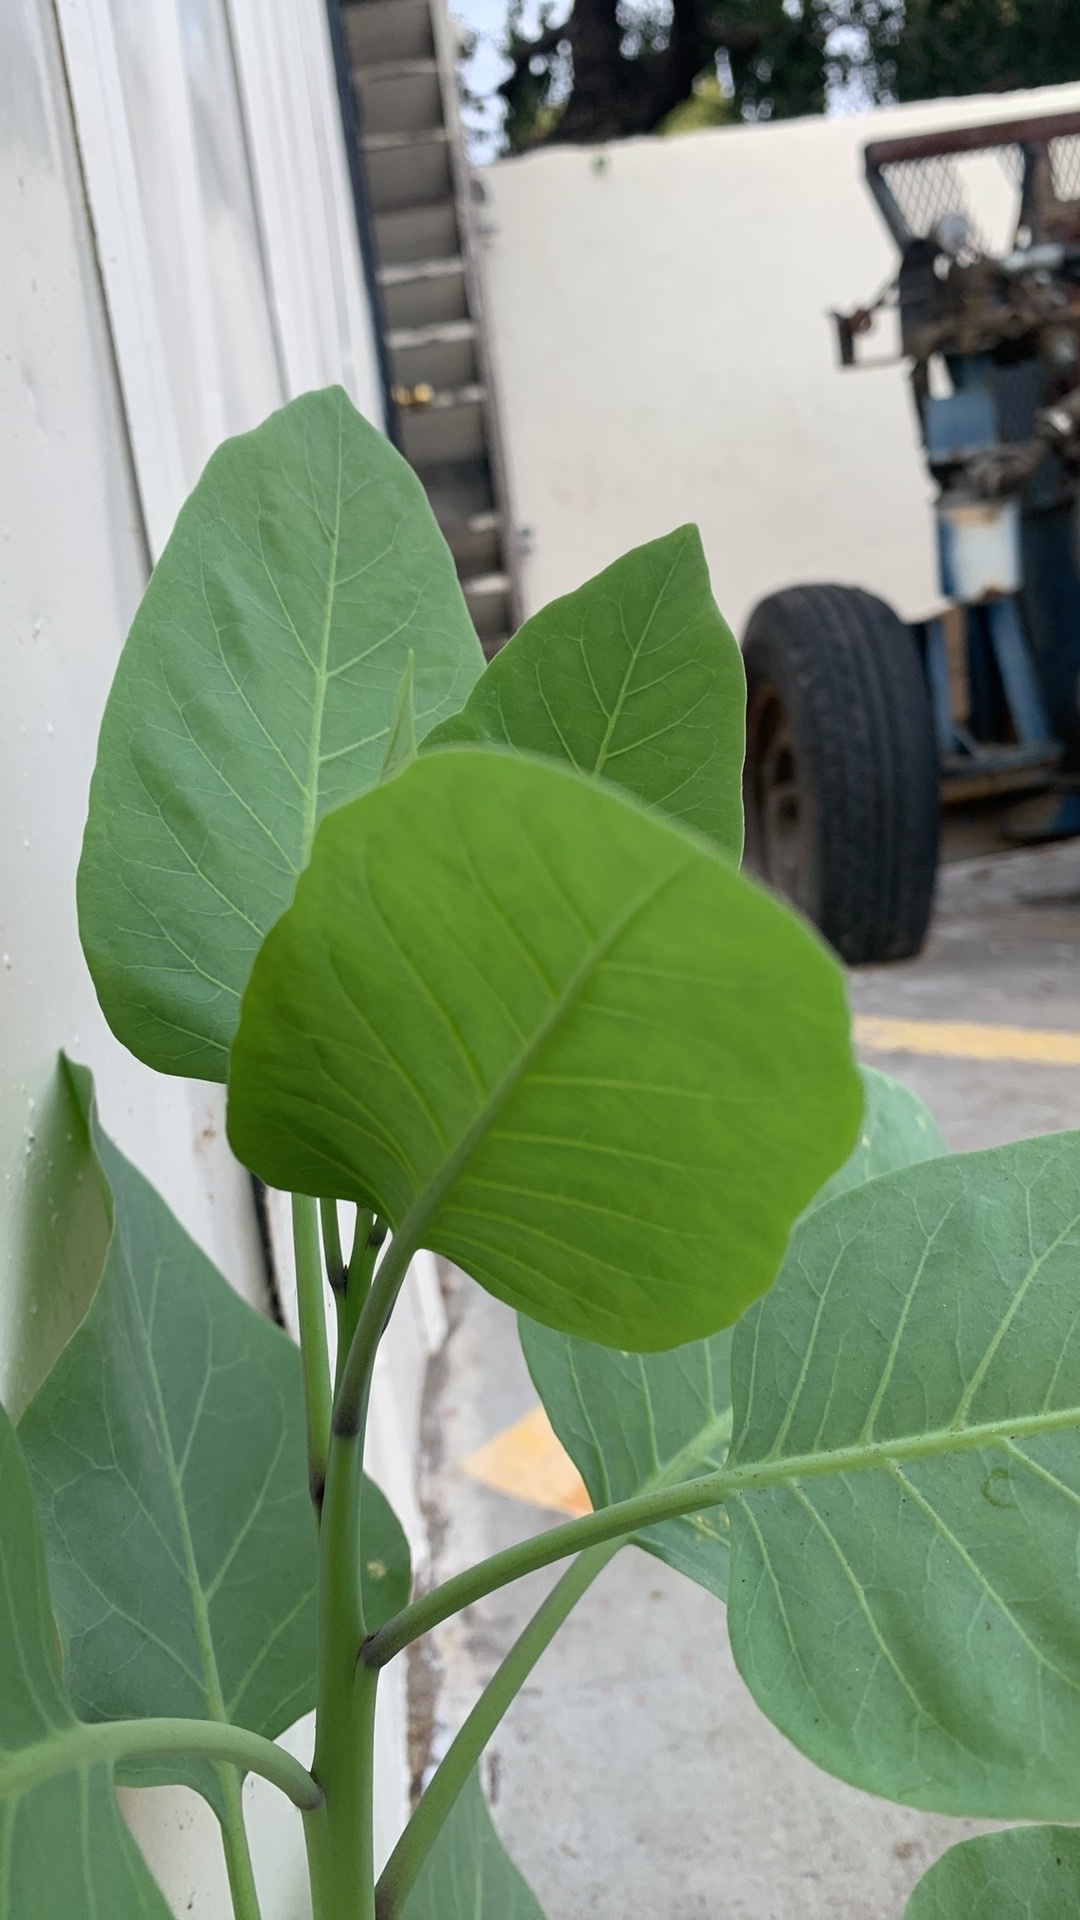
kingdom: Plantae
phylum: Tracheophyta
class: Magnoliopsida
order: Solanales
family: Solanaceae
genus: Nicotiana
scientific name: Nicotiana glauca
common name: Tree tobacco
